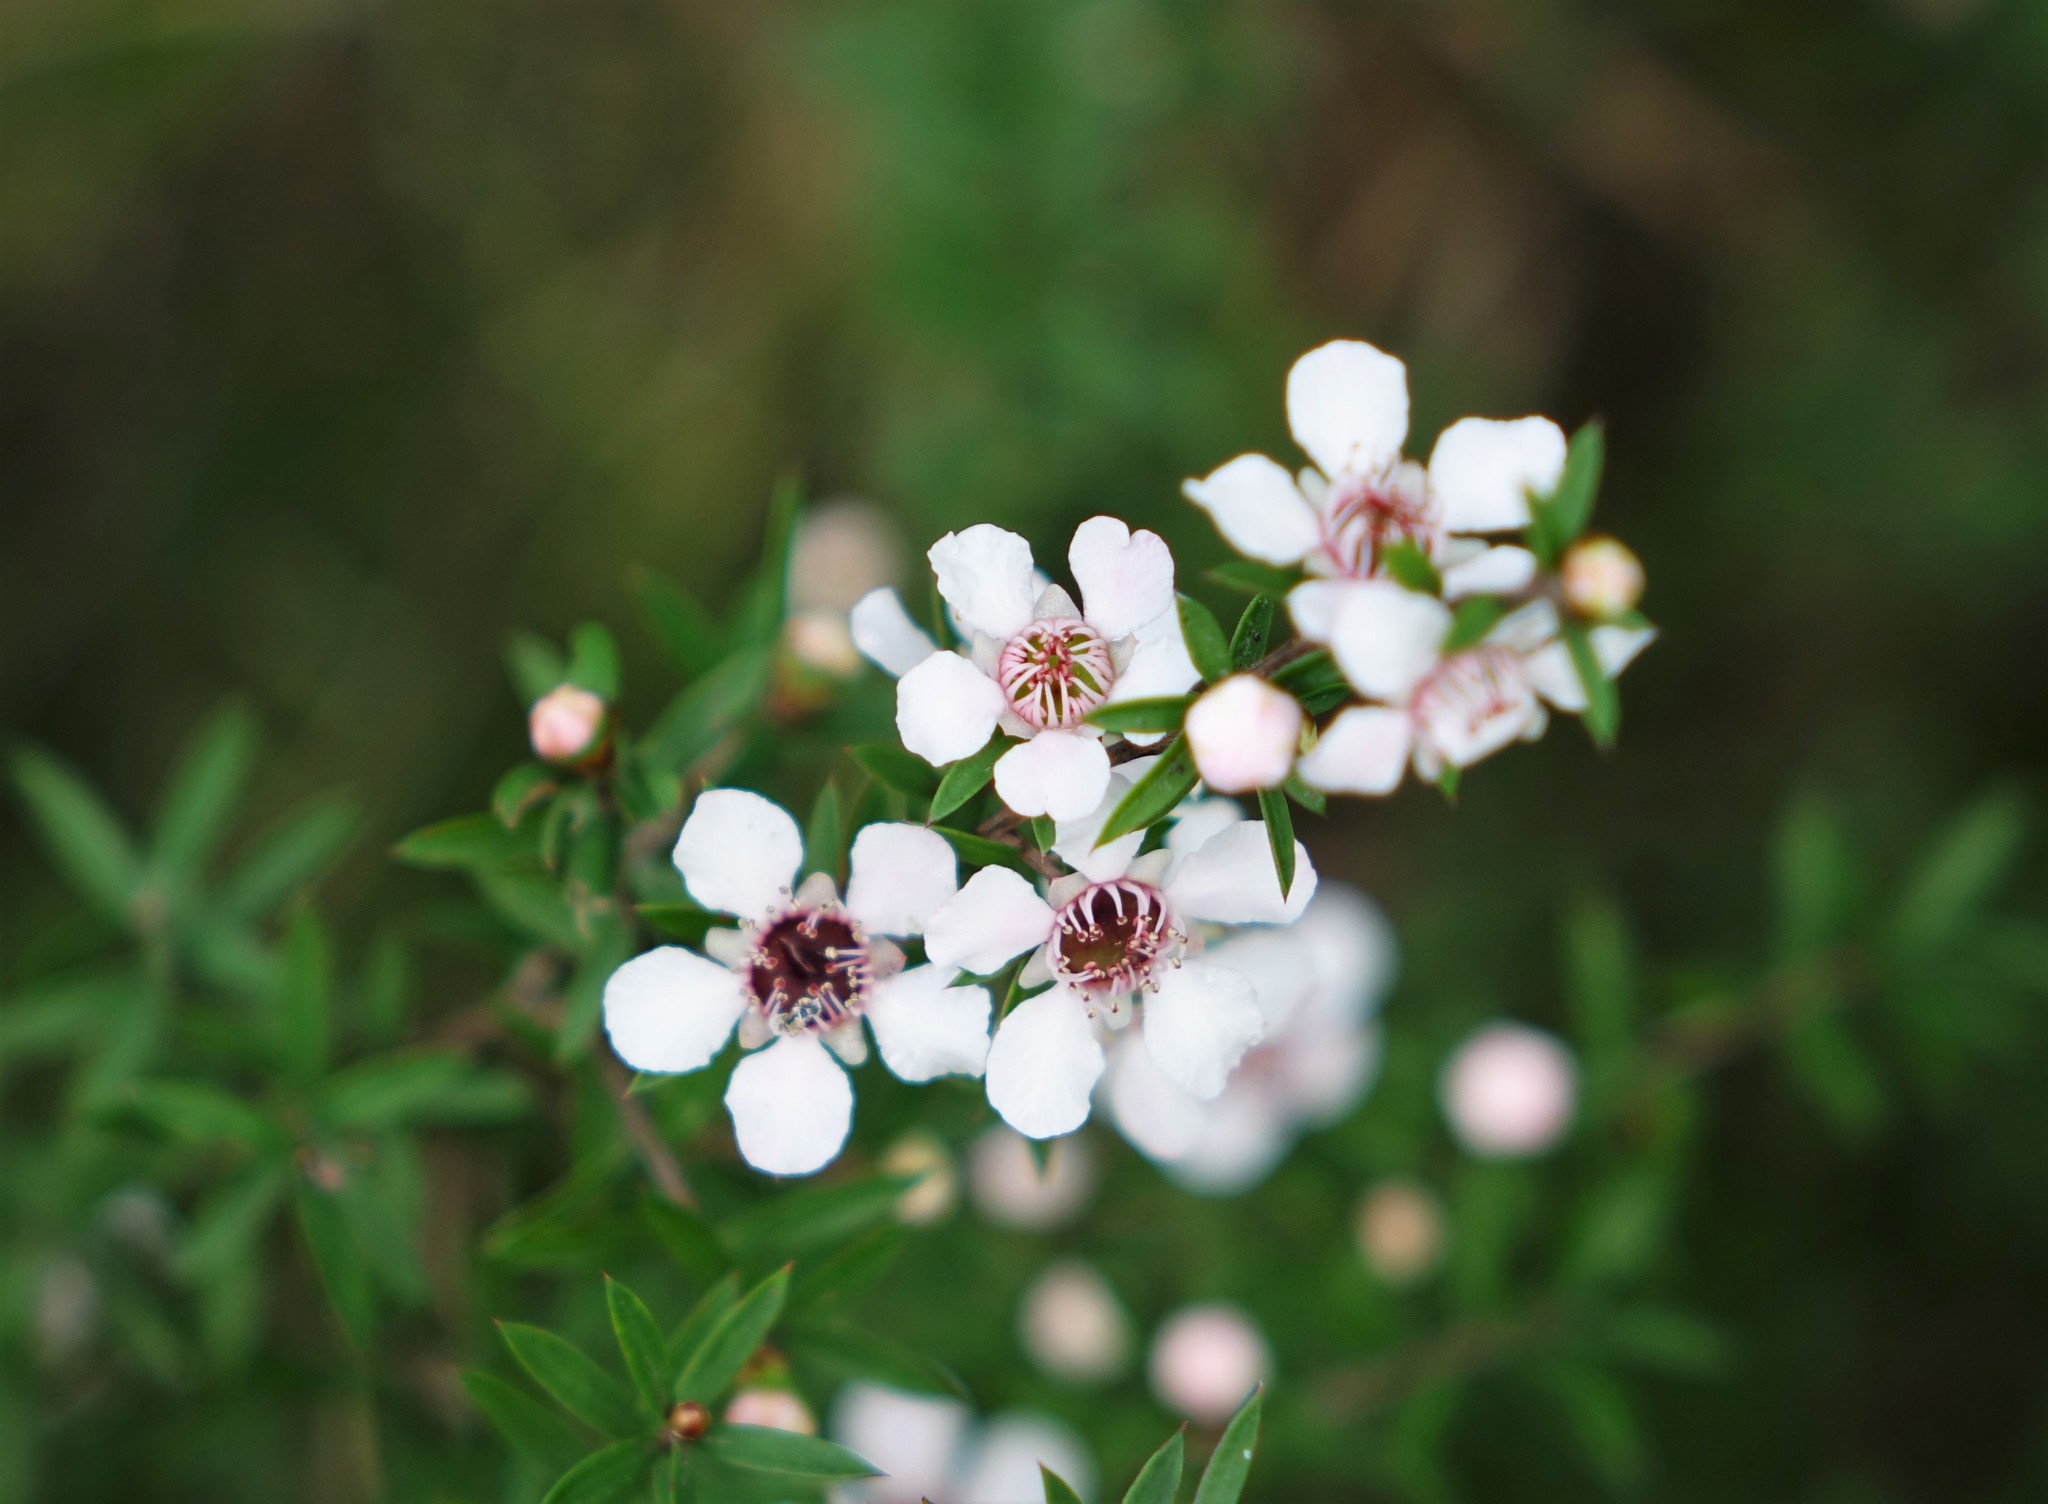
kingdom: Plantae
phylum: Tracheophyta
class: Magnoliopsida
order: Myrtales
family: Myrtaceae
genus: Leptospermum
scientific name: Leptospermum scoparium
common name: Broom tea-tree
